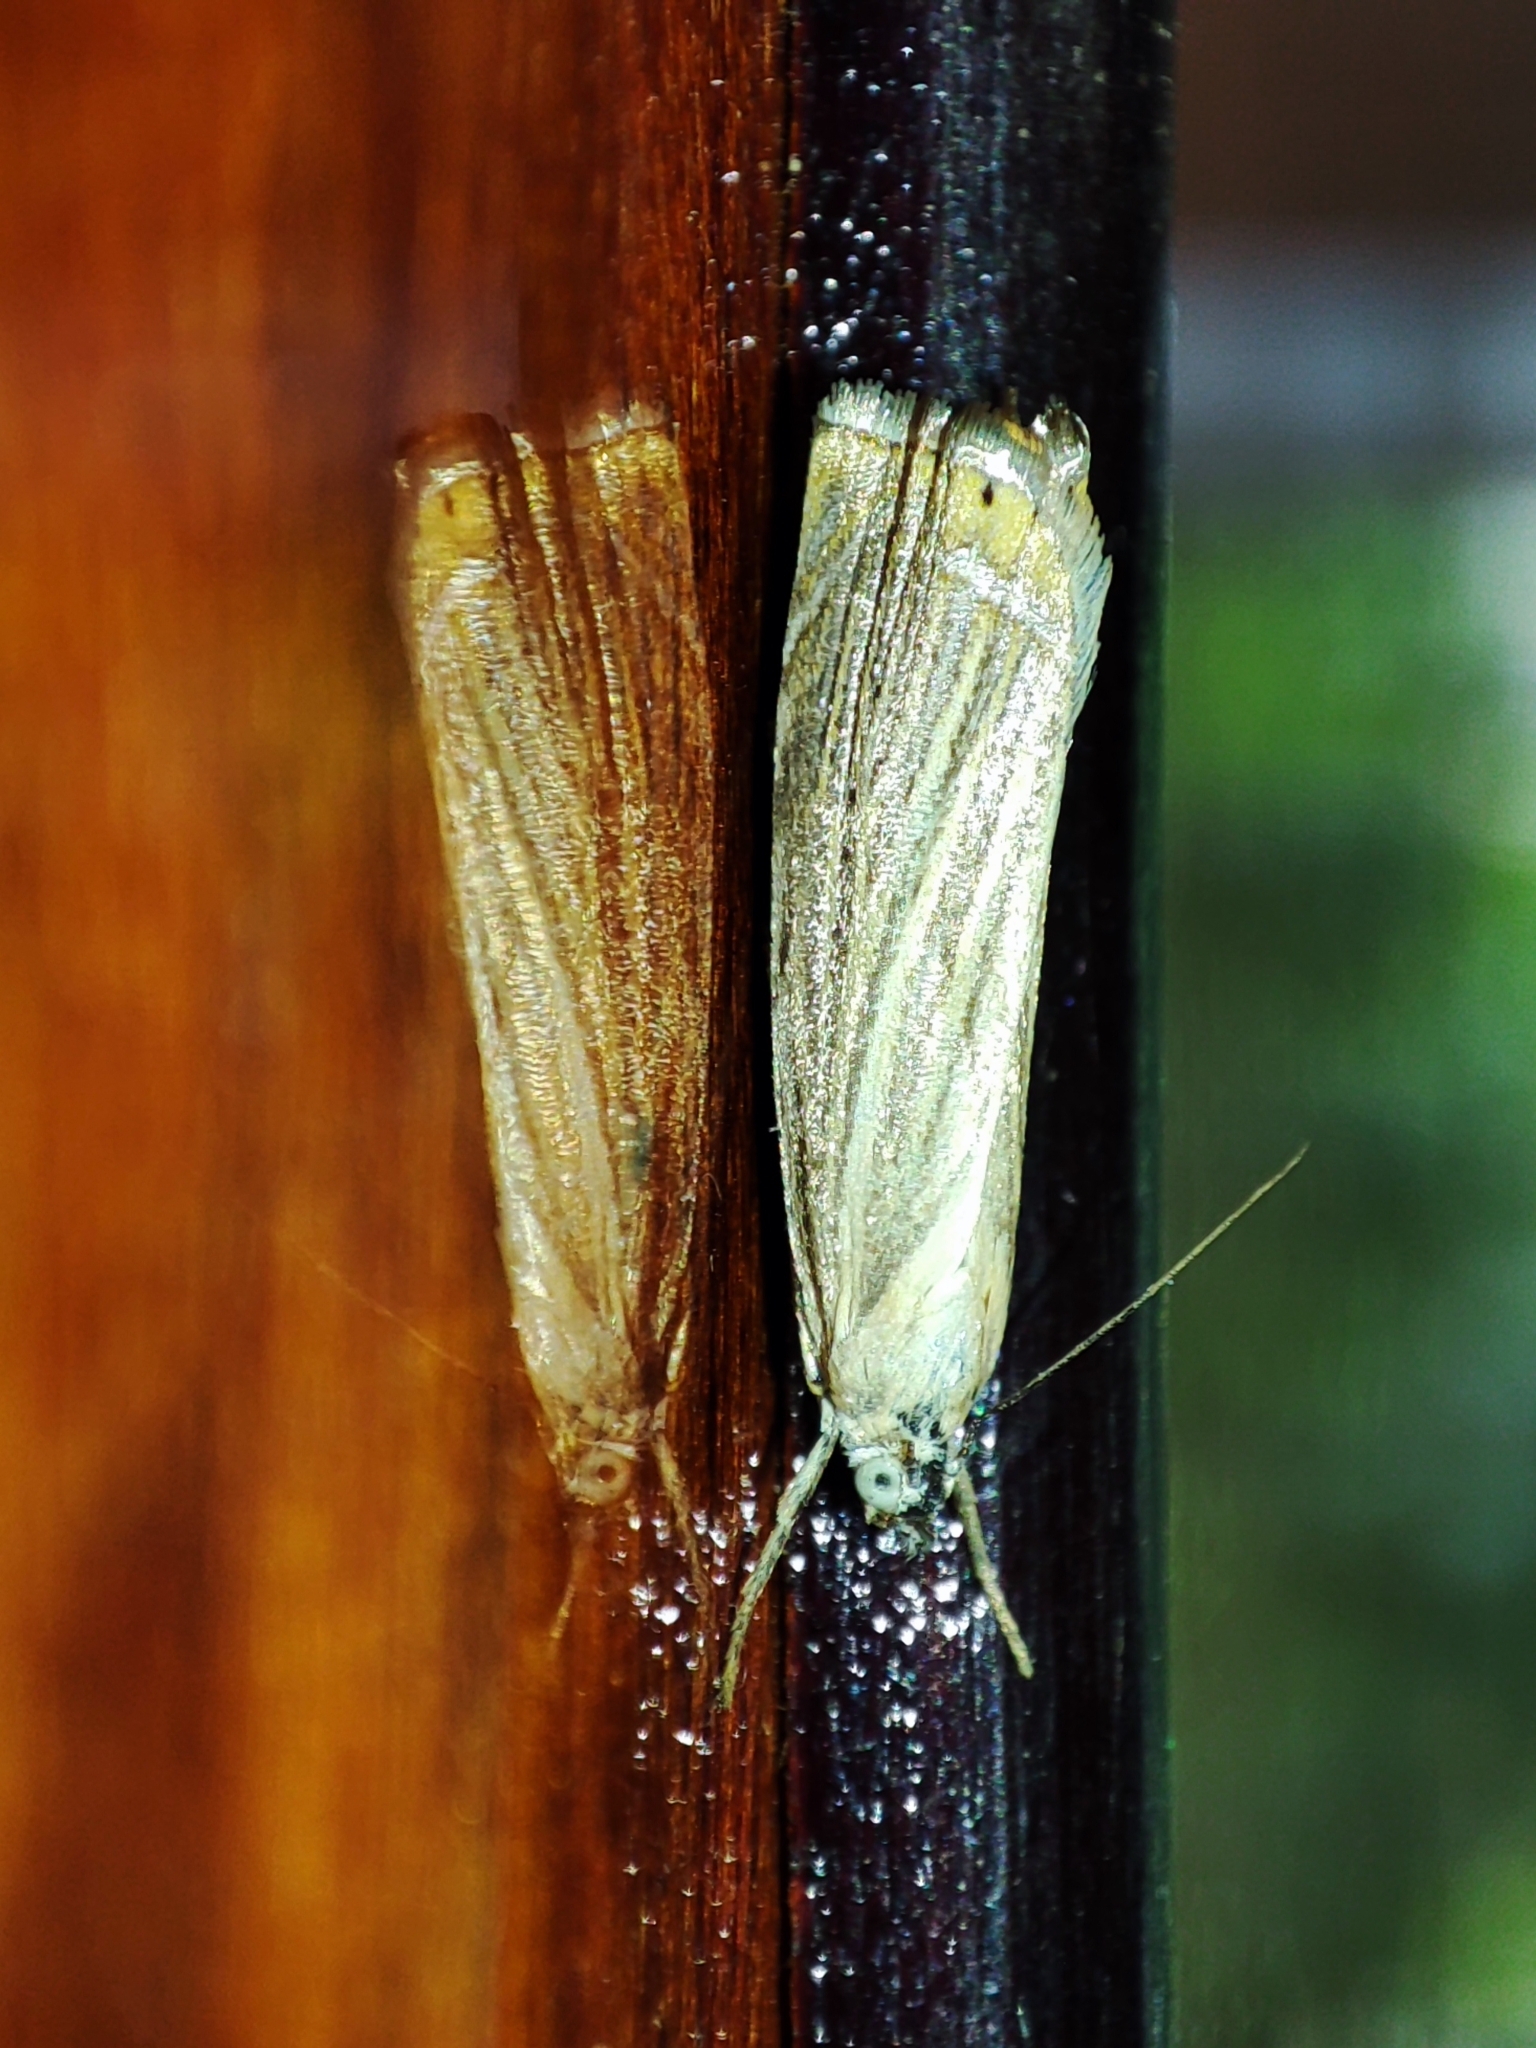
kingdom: Animalia
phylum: Arthropoda
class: Insecta
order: Lepidoptera
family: Crambidae
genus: Chrysoteuchia
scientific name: Chrysoteuchia culmella
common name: Garden grass-veneer
